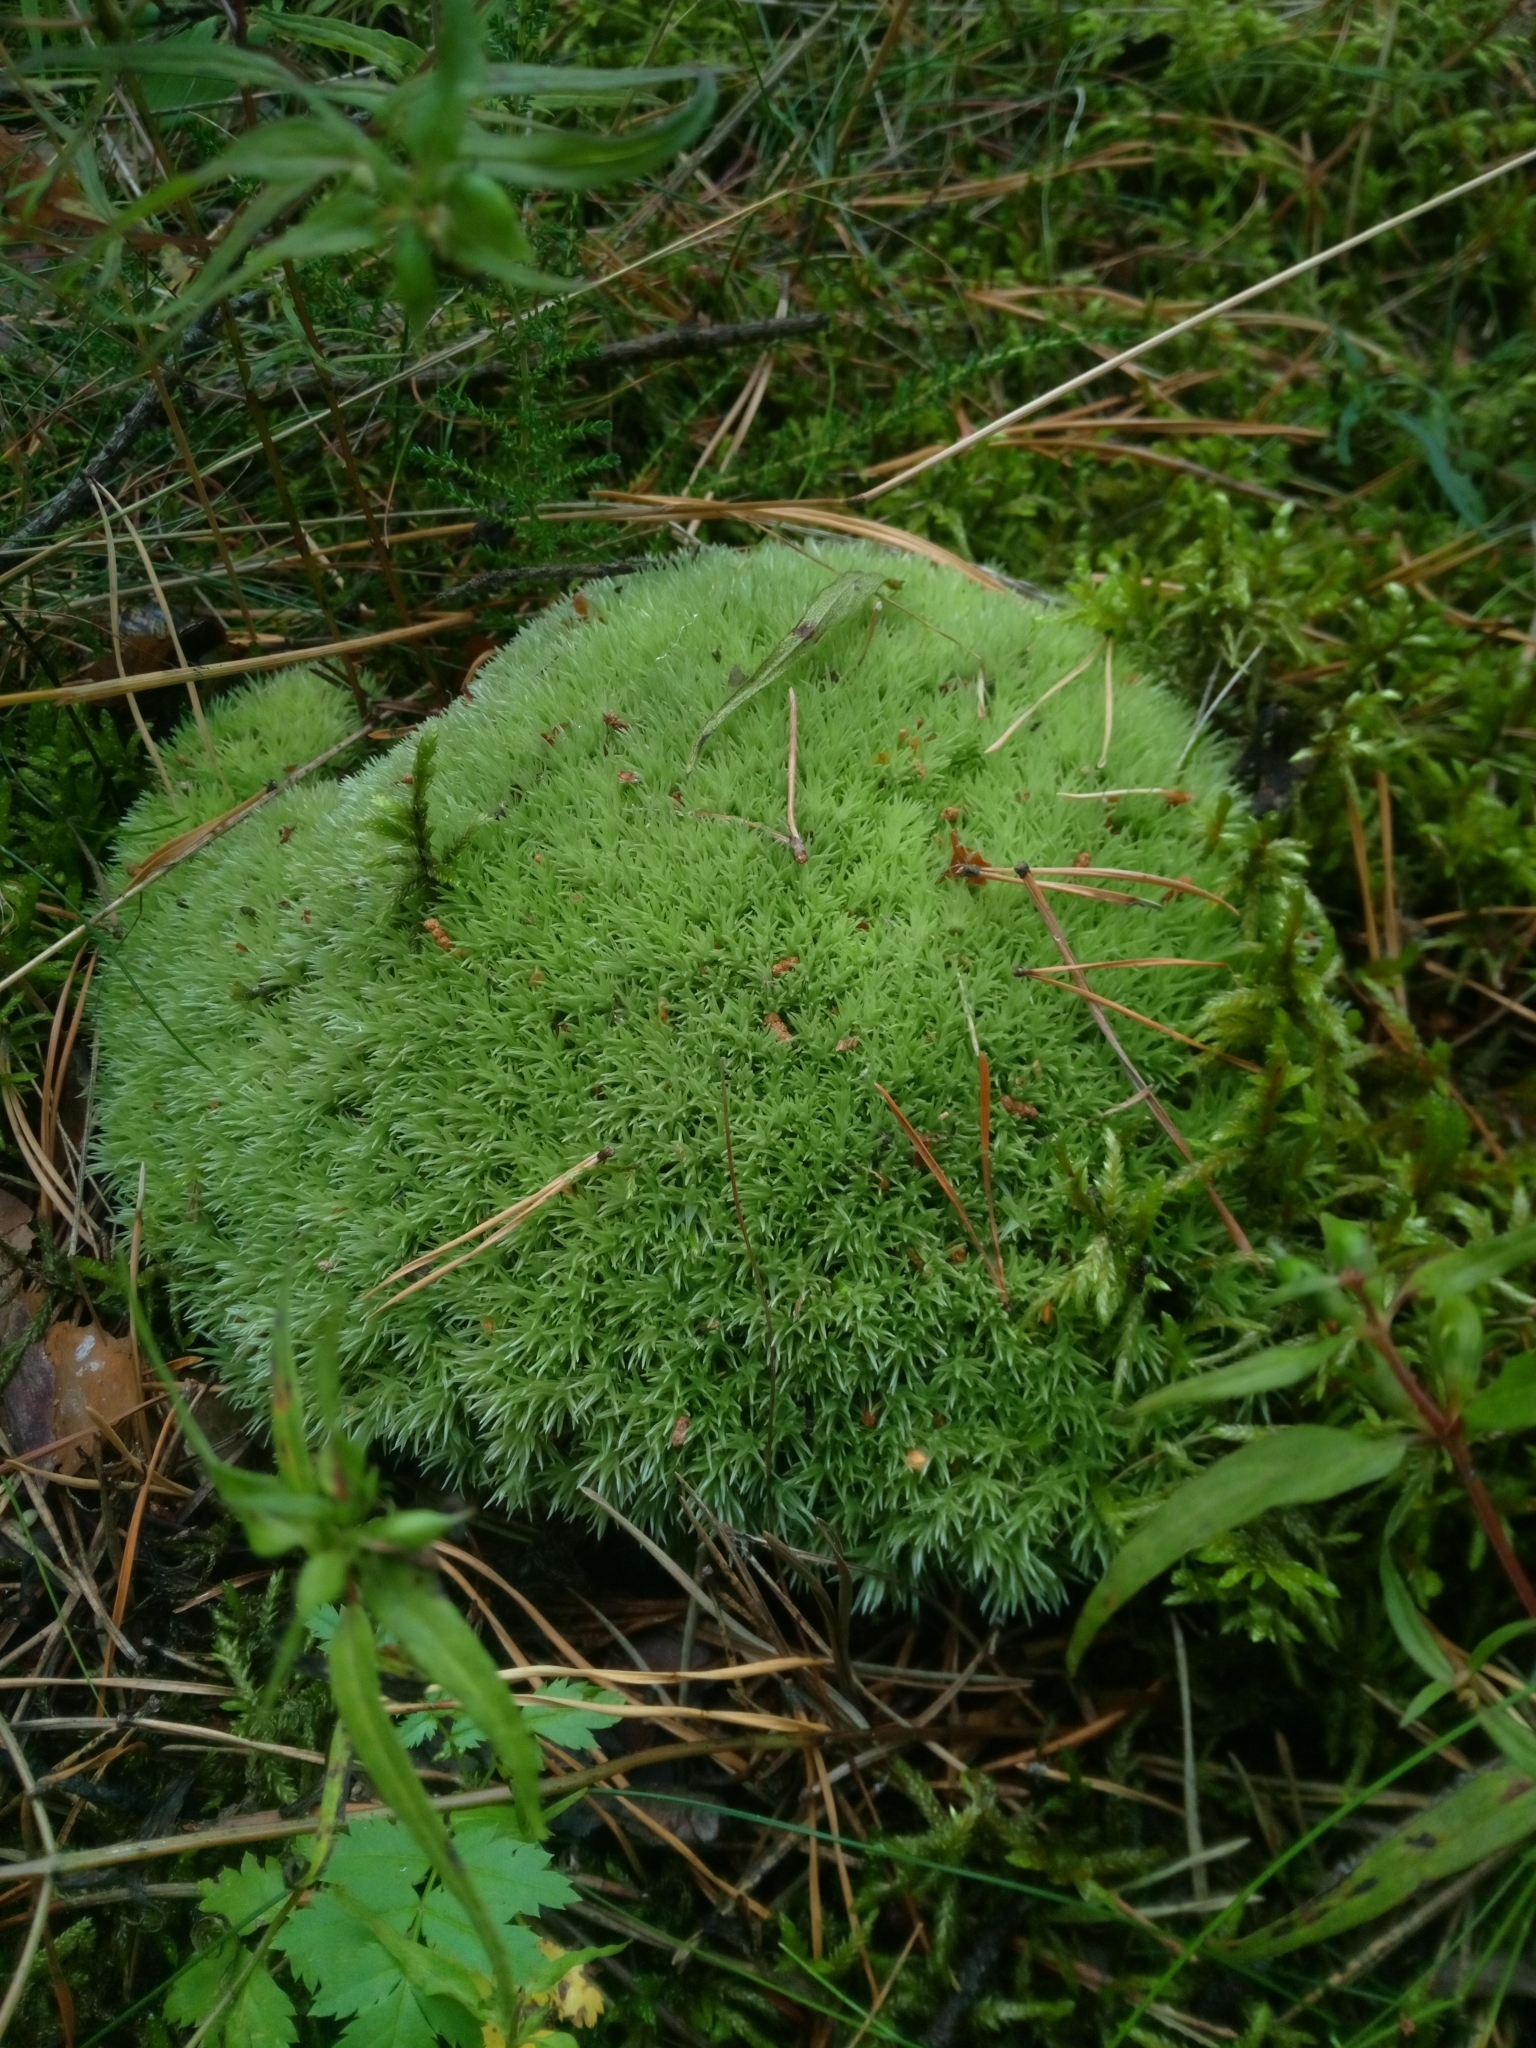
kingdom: Plantae
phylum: Bryophyta
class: Bryopsida
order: Dicranales
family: Leucobryaceae
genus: Leucobryum
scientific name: Leucobryum glaucum
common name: Large white-moss
